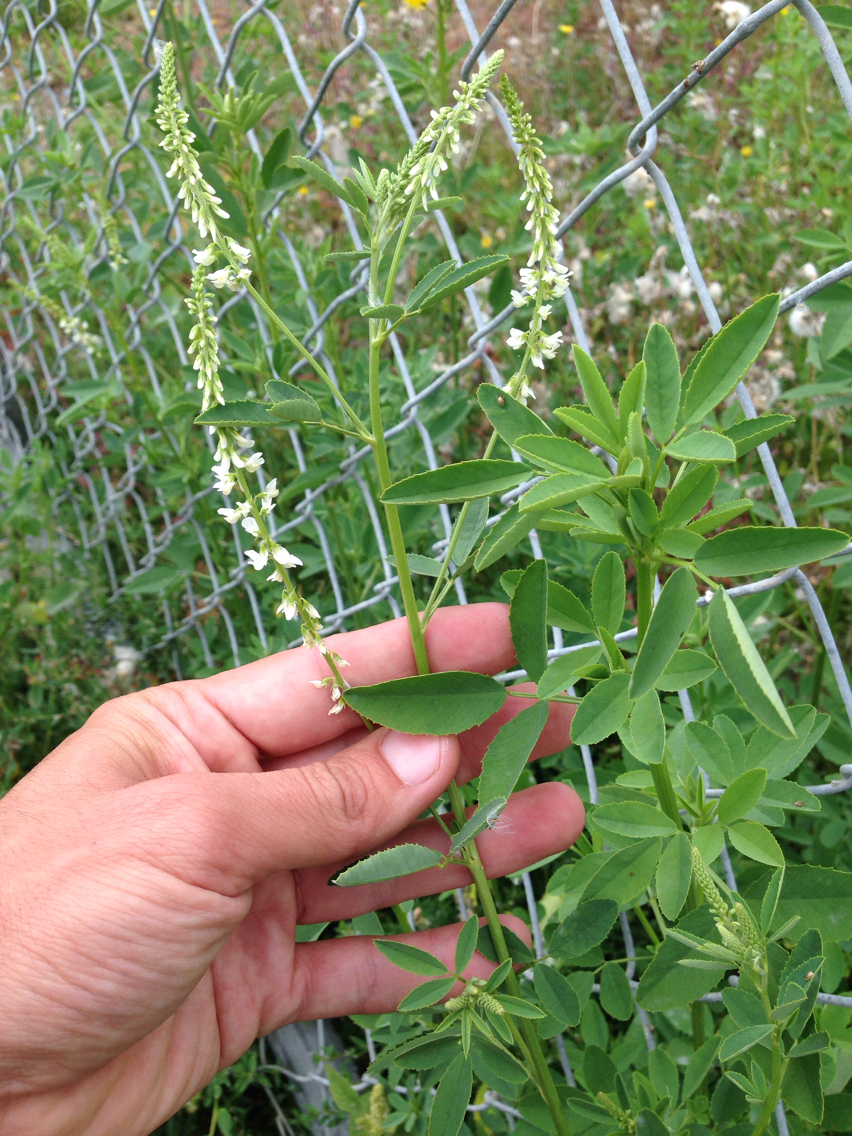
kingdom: Plantae
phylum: Tracheophyta
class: Magnoliopsida
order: Fabales
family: Fabaceae
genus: Melilotus
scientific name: Melilotus albus
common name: White melilot
